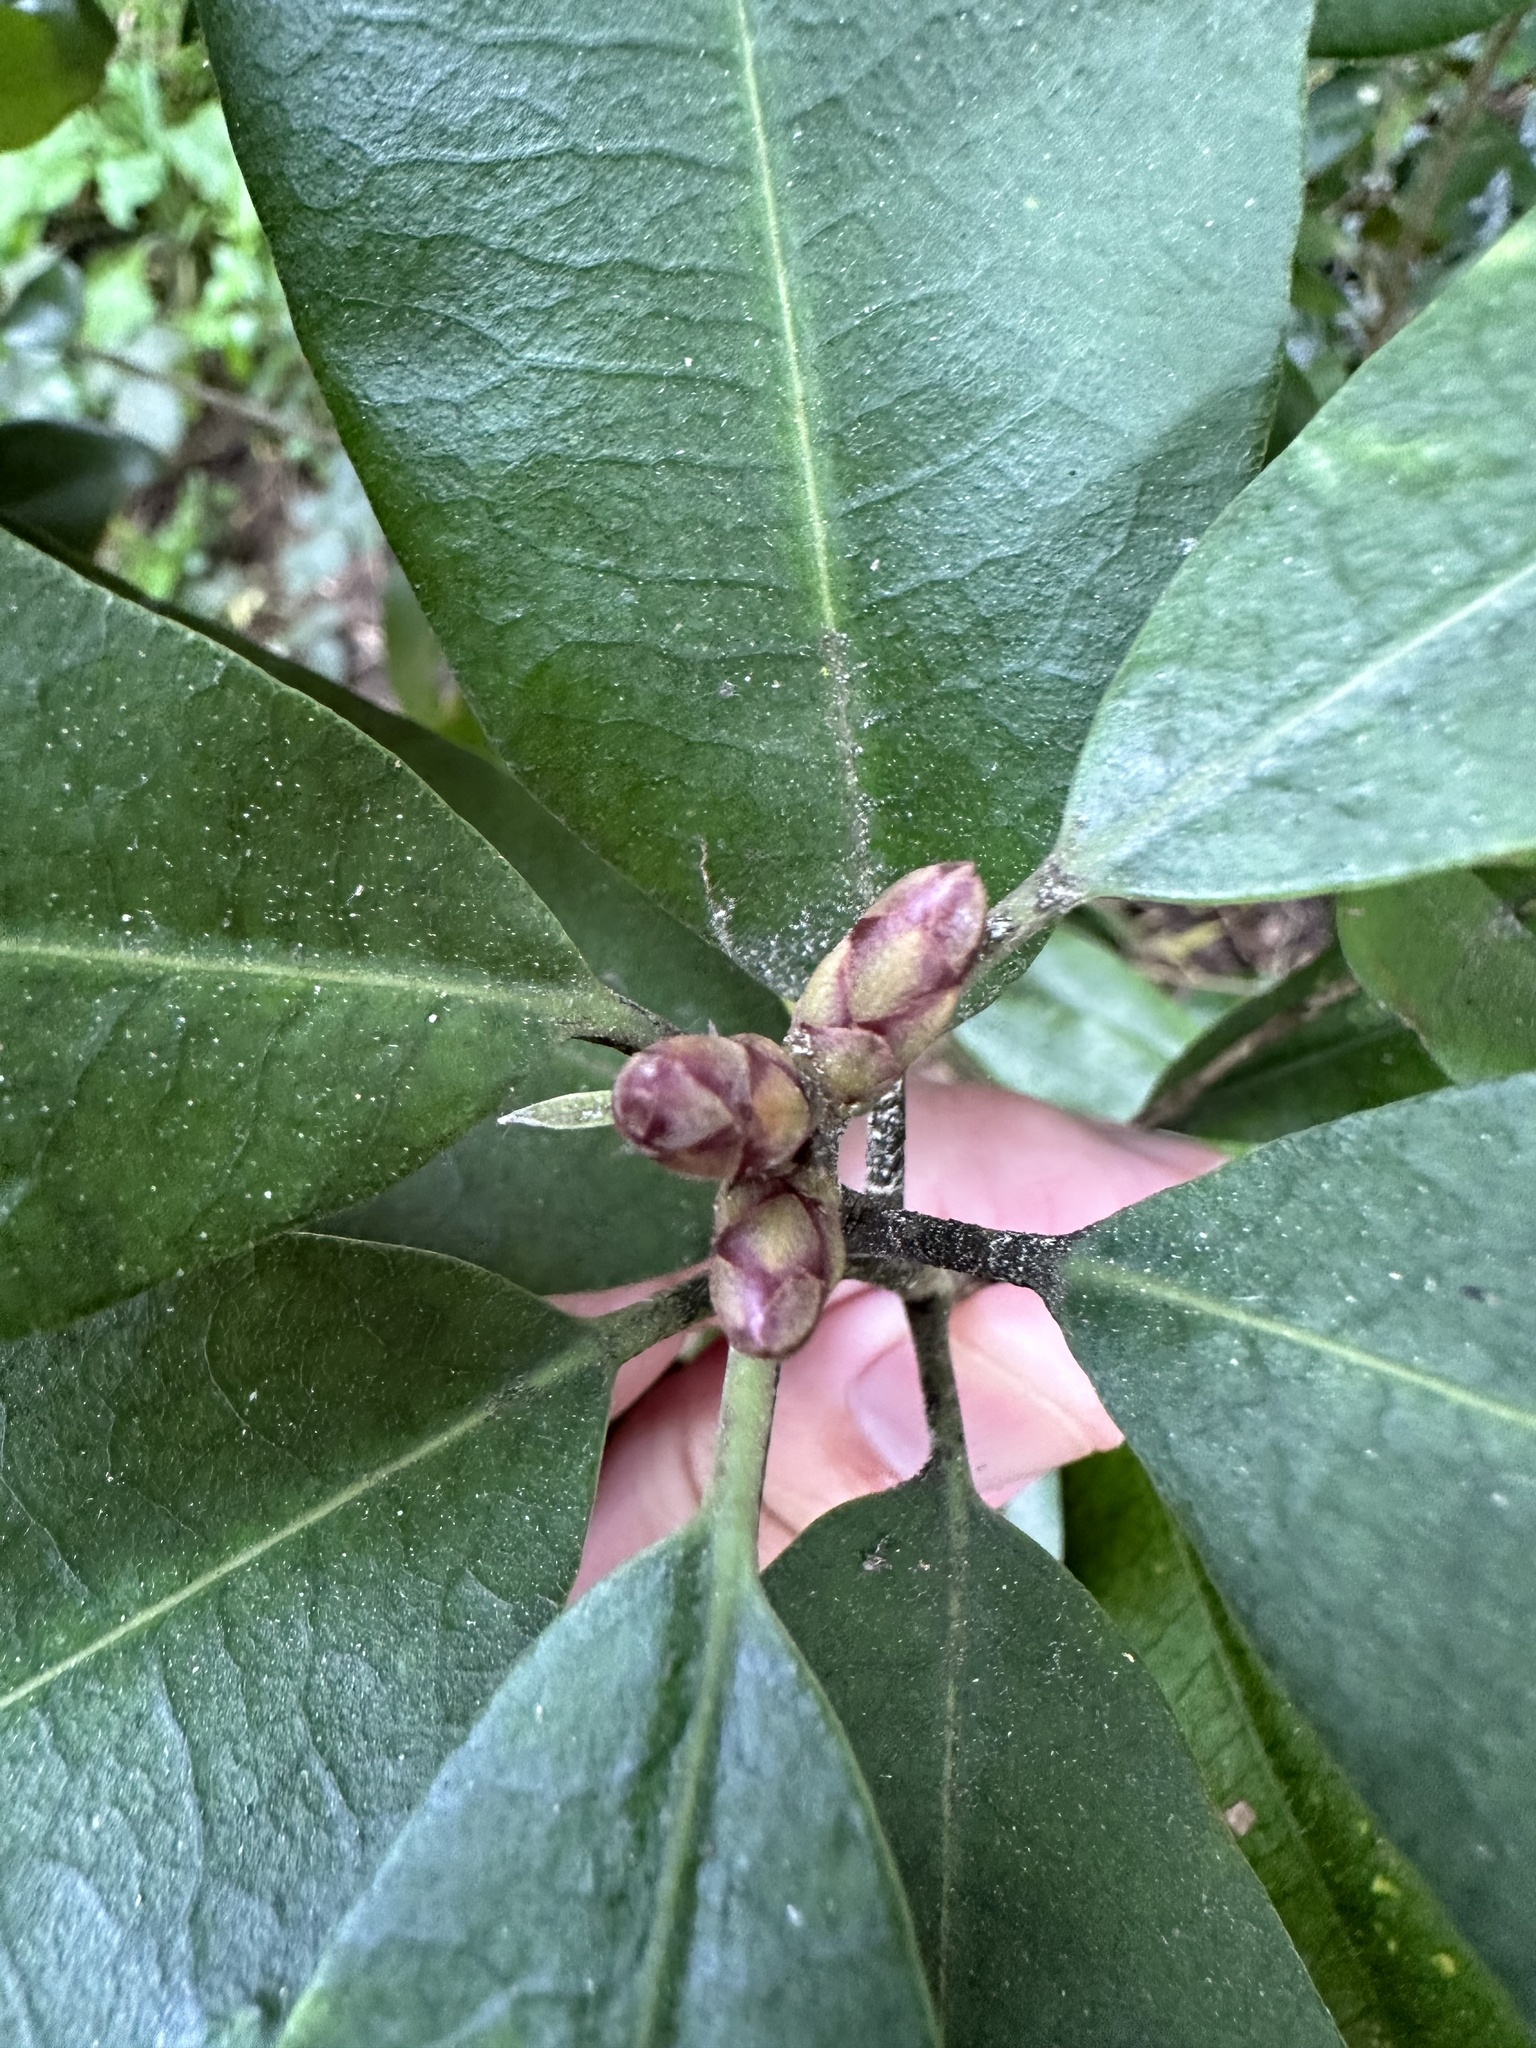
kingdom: Plantae
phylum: Tracheophyta
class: Magnoliopsida
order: Apiales
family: Pittosporaceae
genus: Pittosporum
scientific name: Pittosporum ralphii
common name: Ralph's desertwillow
